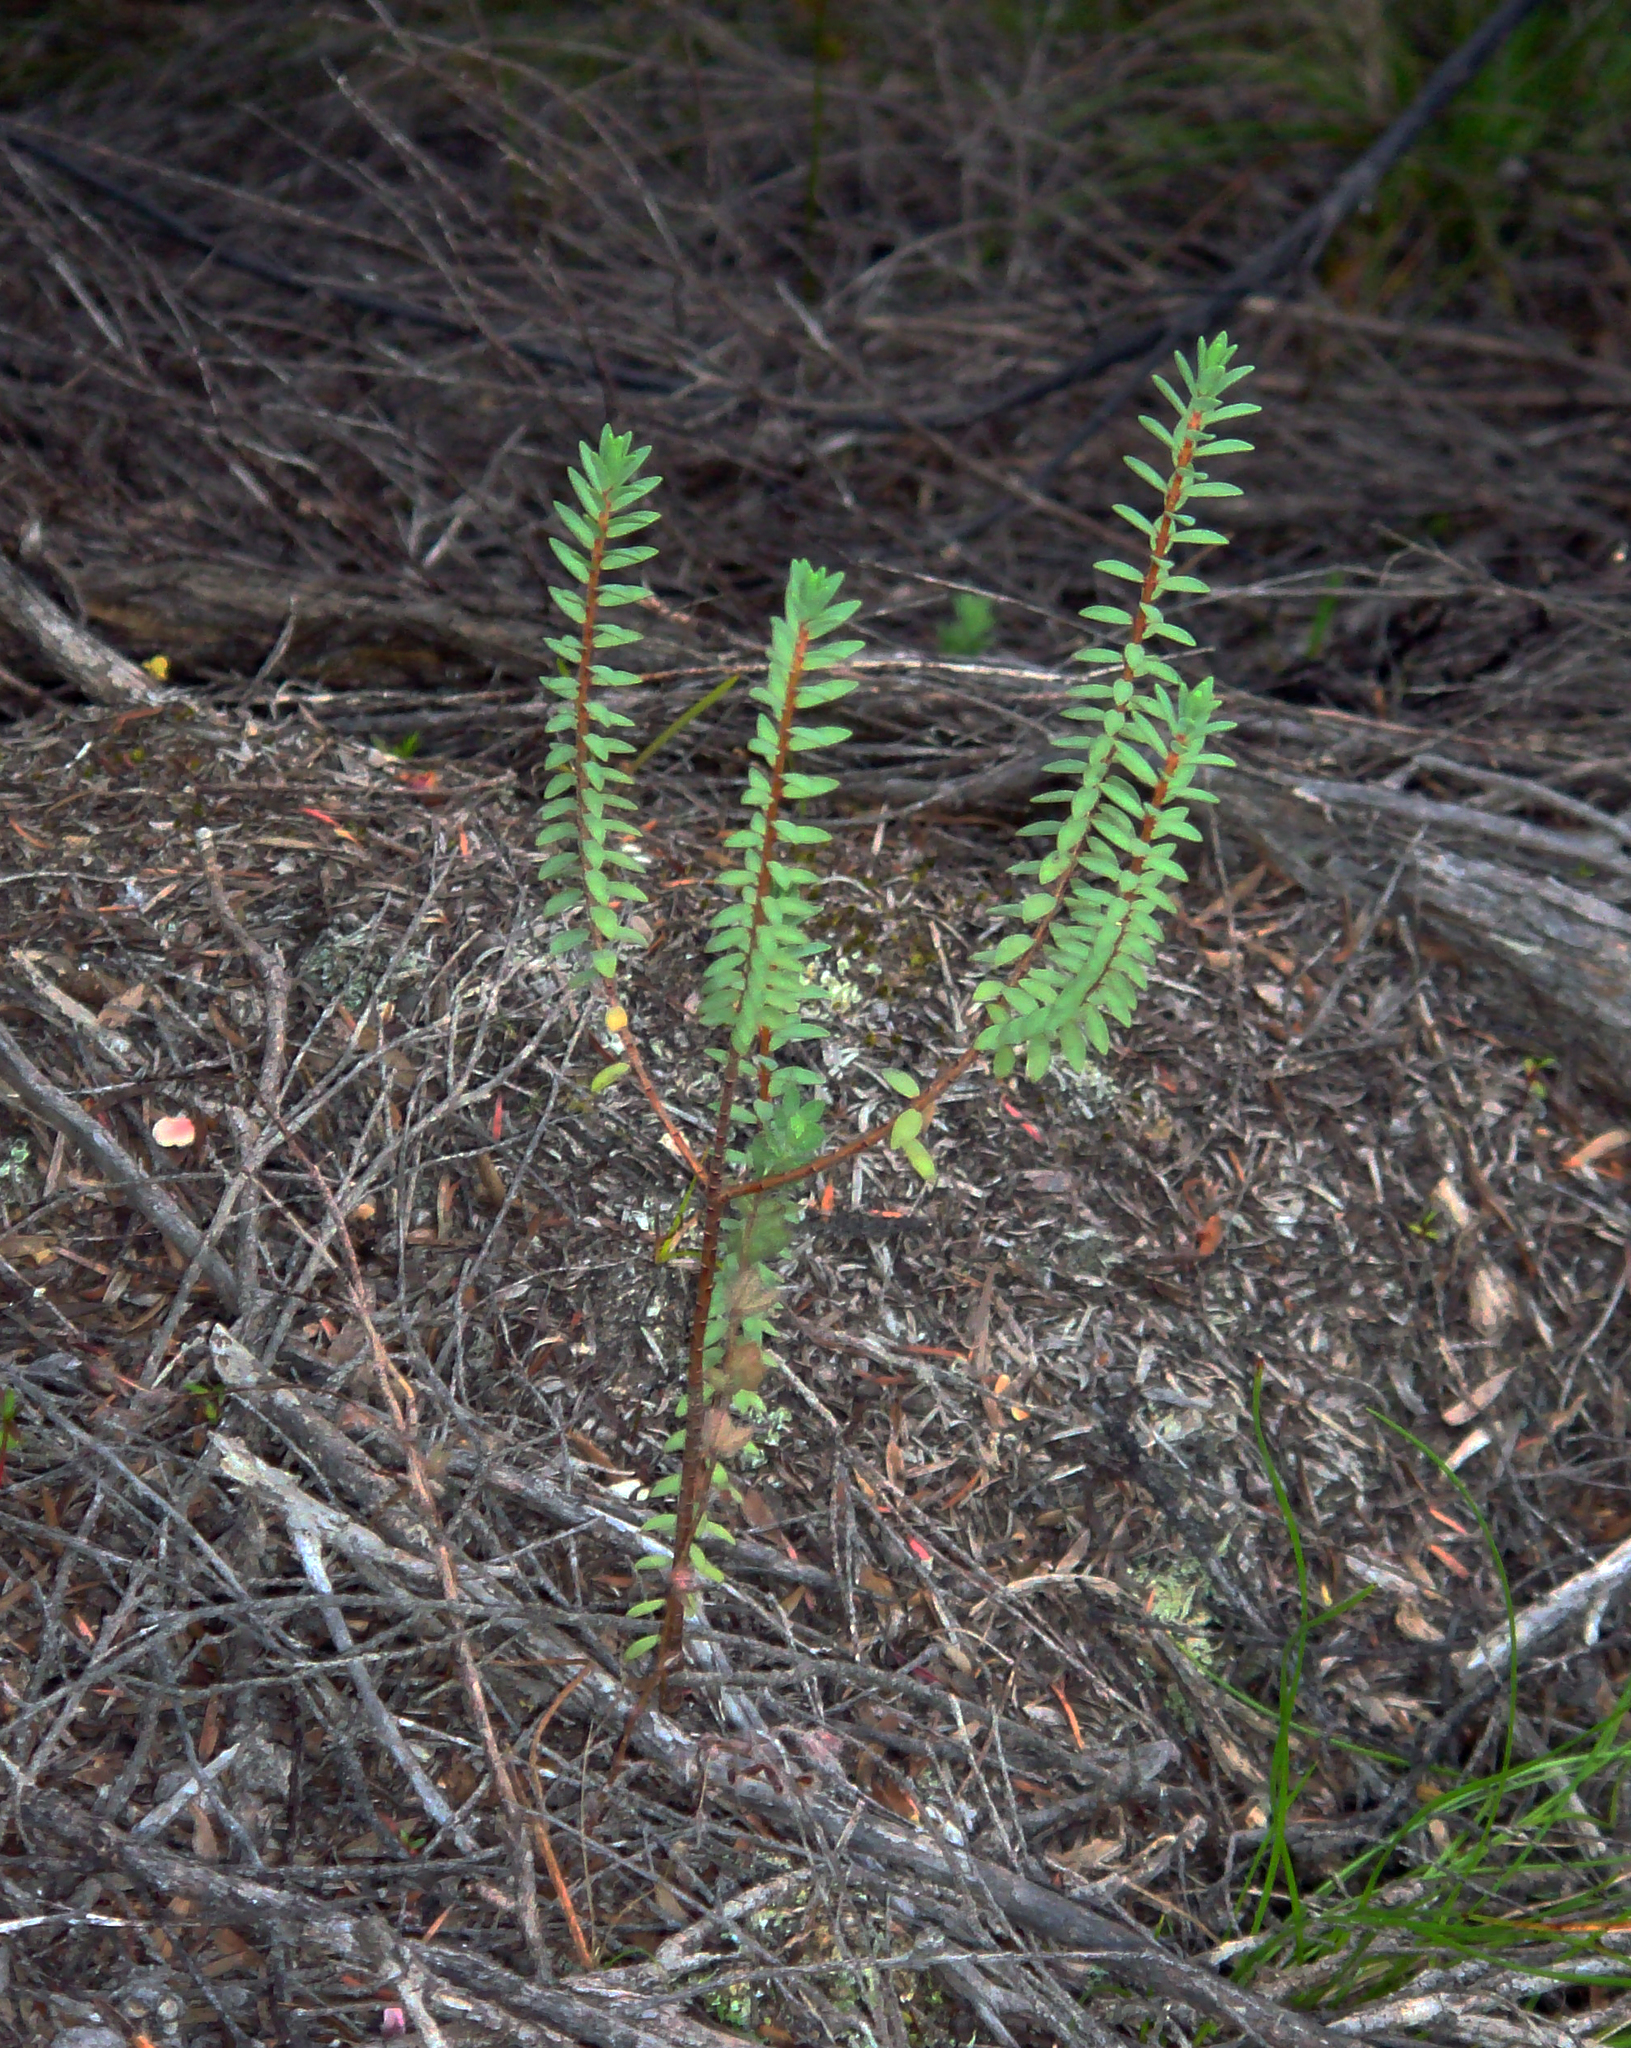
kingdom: Plantae
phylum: Tracheophyta
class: Magnoliopsida
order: Malvales
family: Thymelaeaceae
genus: Pimelea
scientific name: Pimelea orthia
